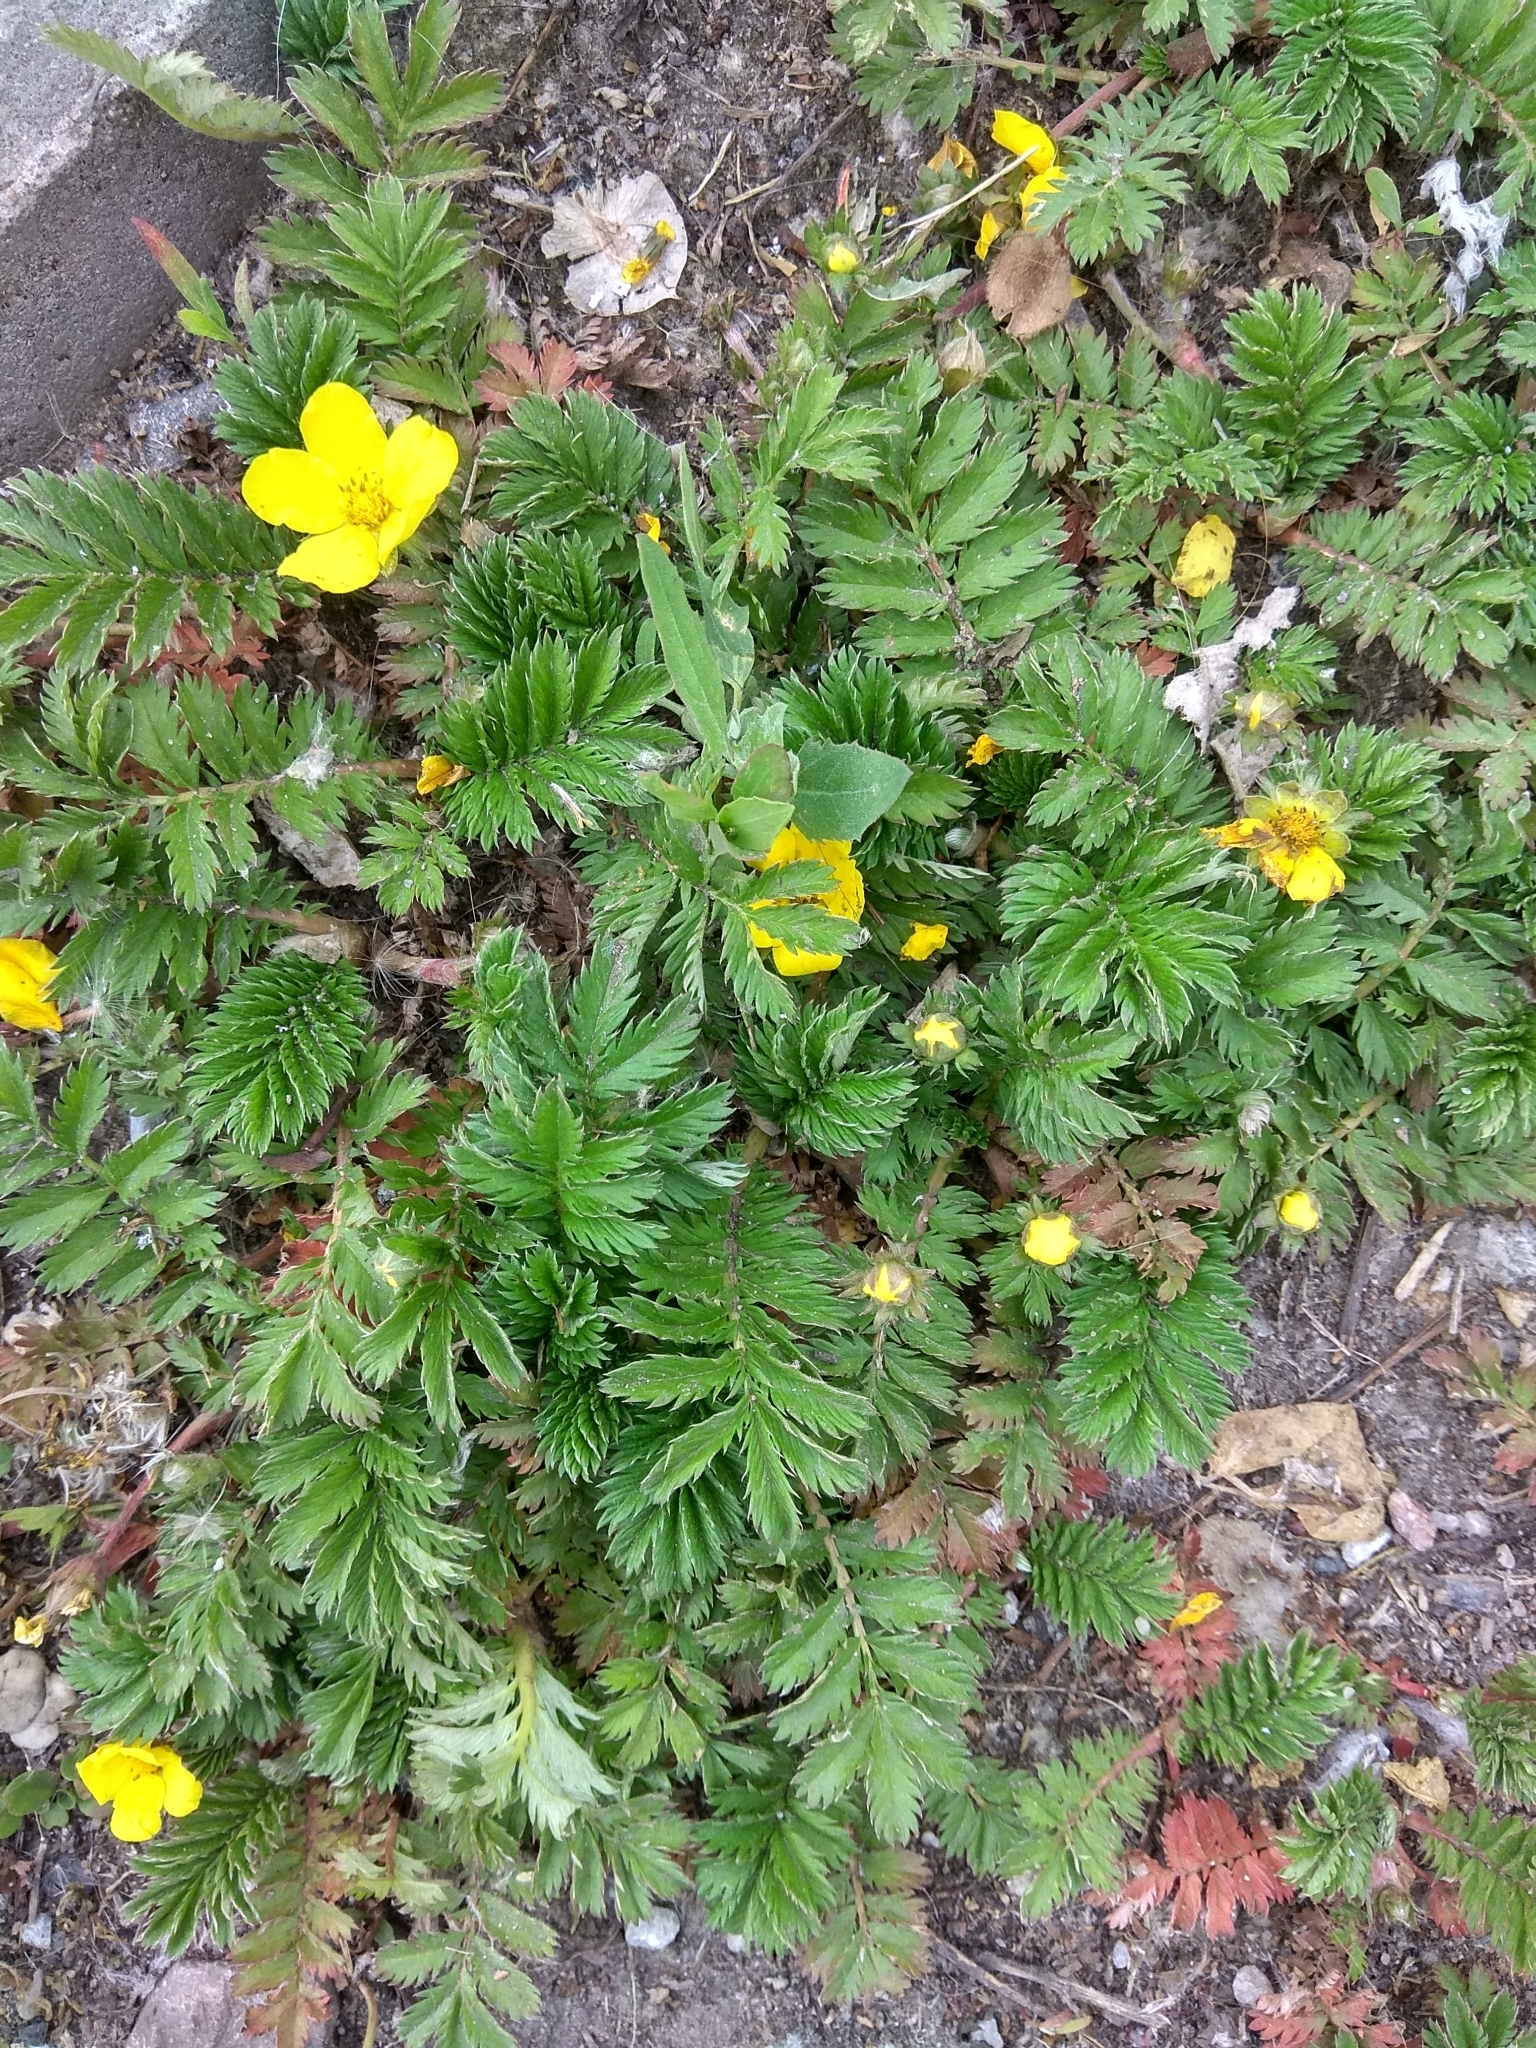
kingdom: Plantae
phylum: Tracheophyta
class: Magnoliopsida
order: Rosales
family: Rosaceae
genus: Argentina
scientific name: Argentina anserina
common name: Common silverweed
